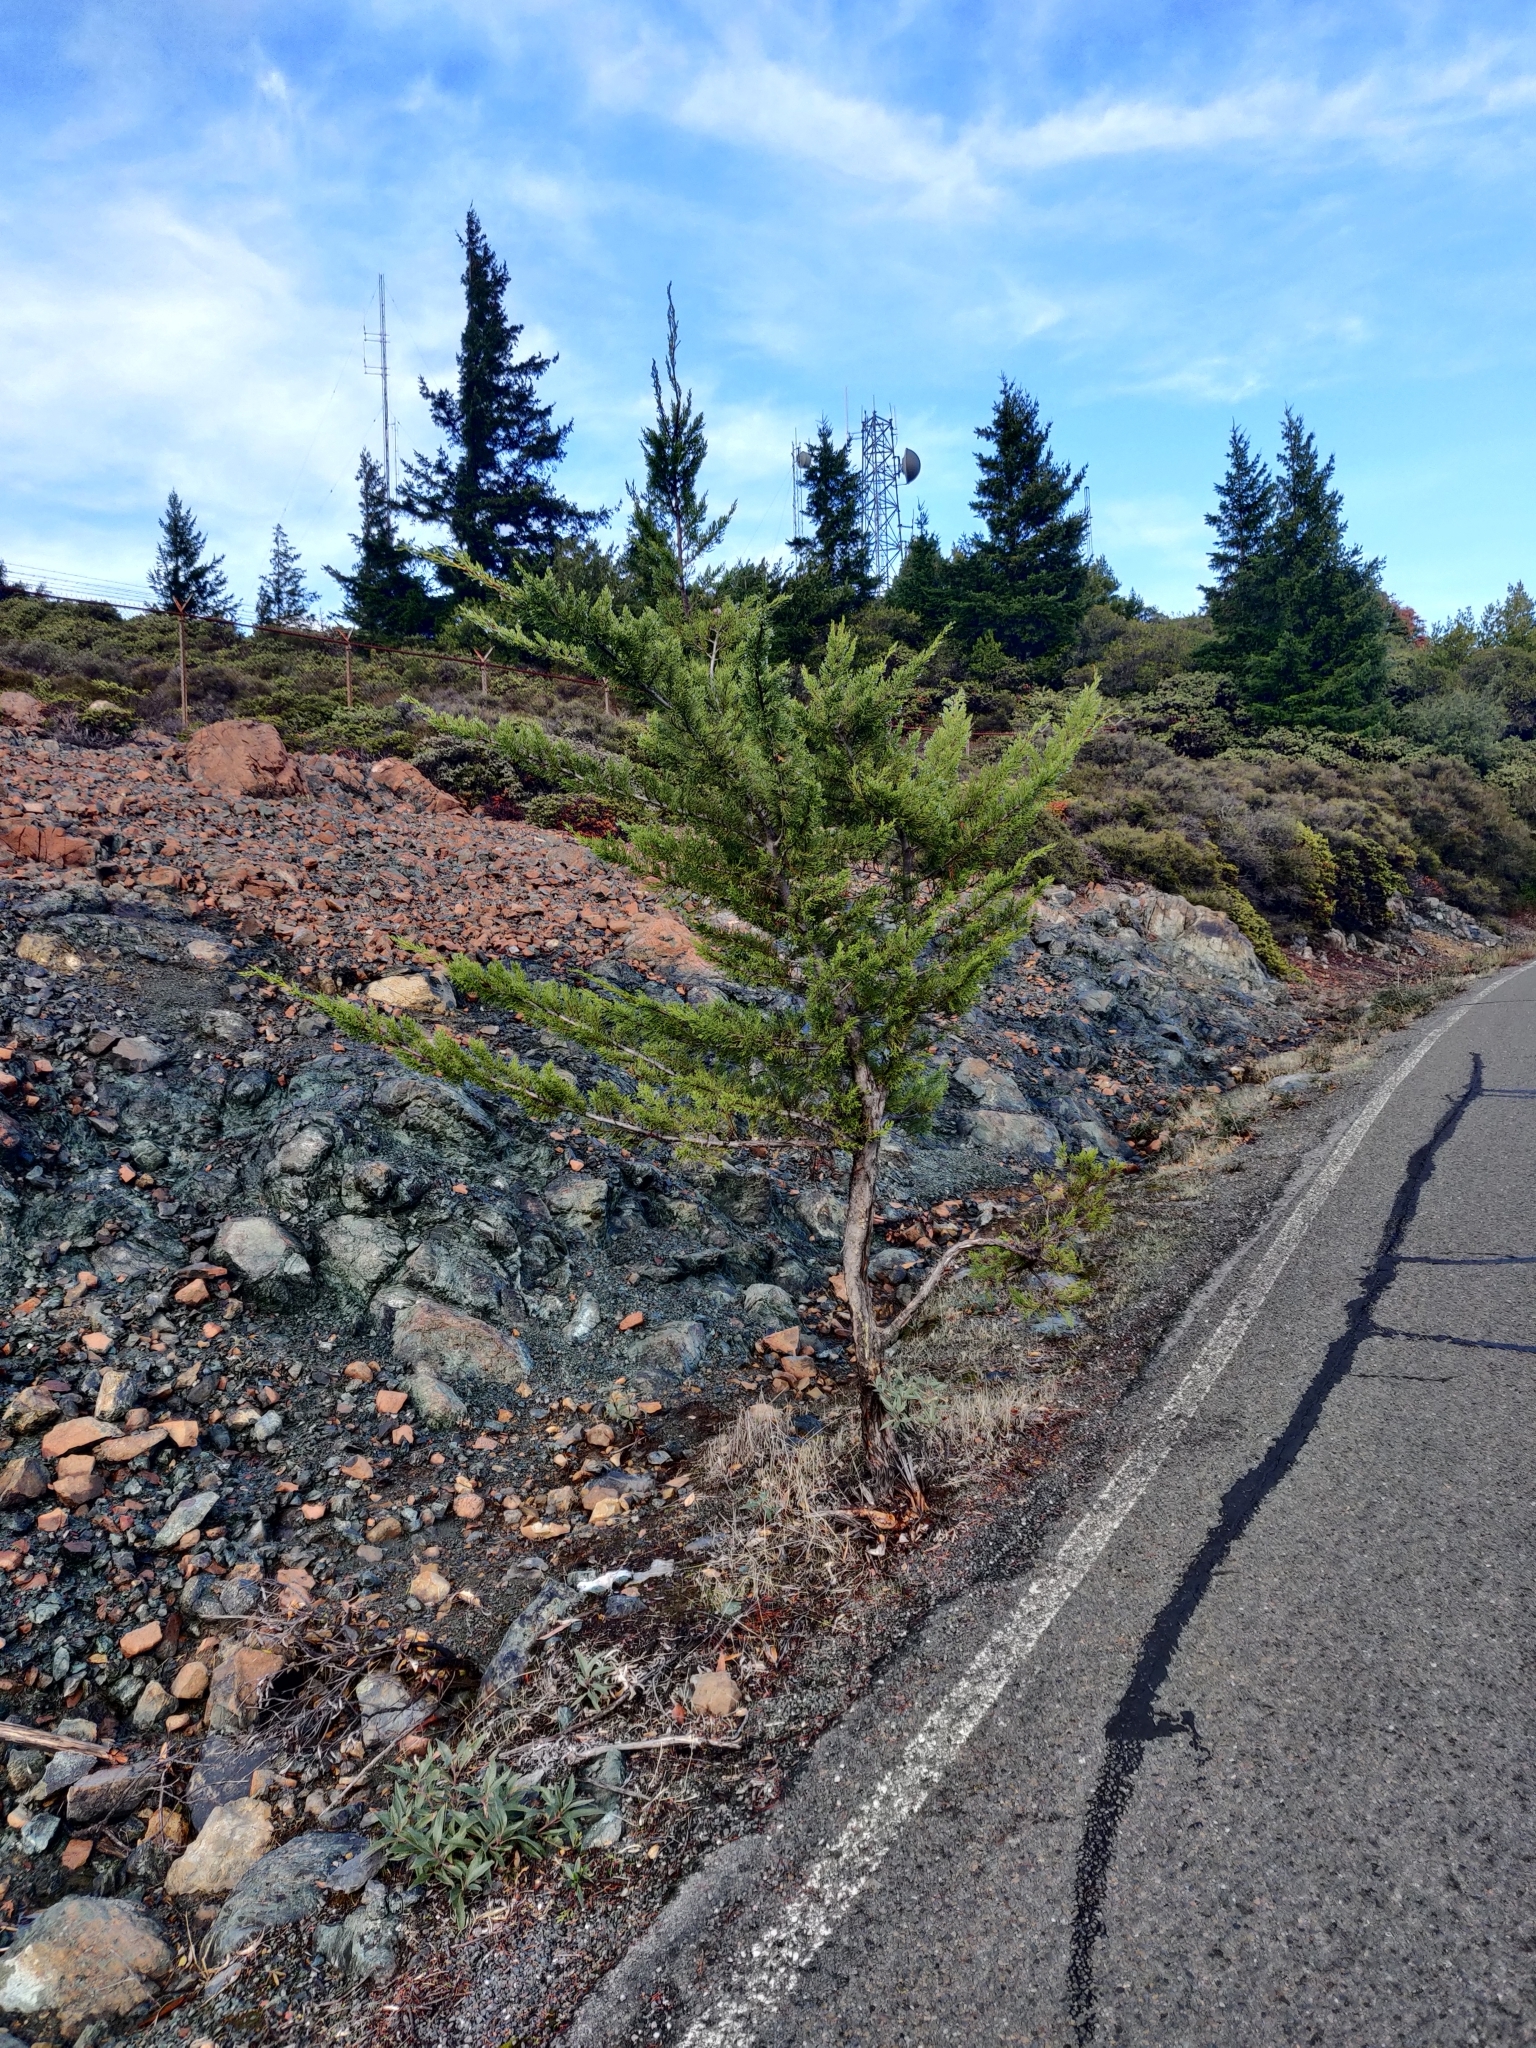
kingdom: Plantae
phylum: Tracheophyta
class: Pinopsida
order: Pinales
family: Cupressaceae
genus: Cupressus
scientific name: Cupressus sargentii
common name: Sargent cypress
